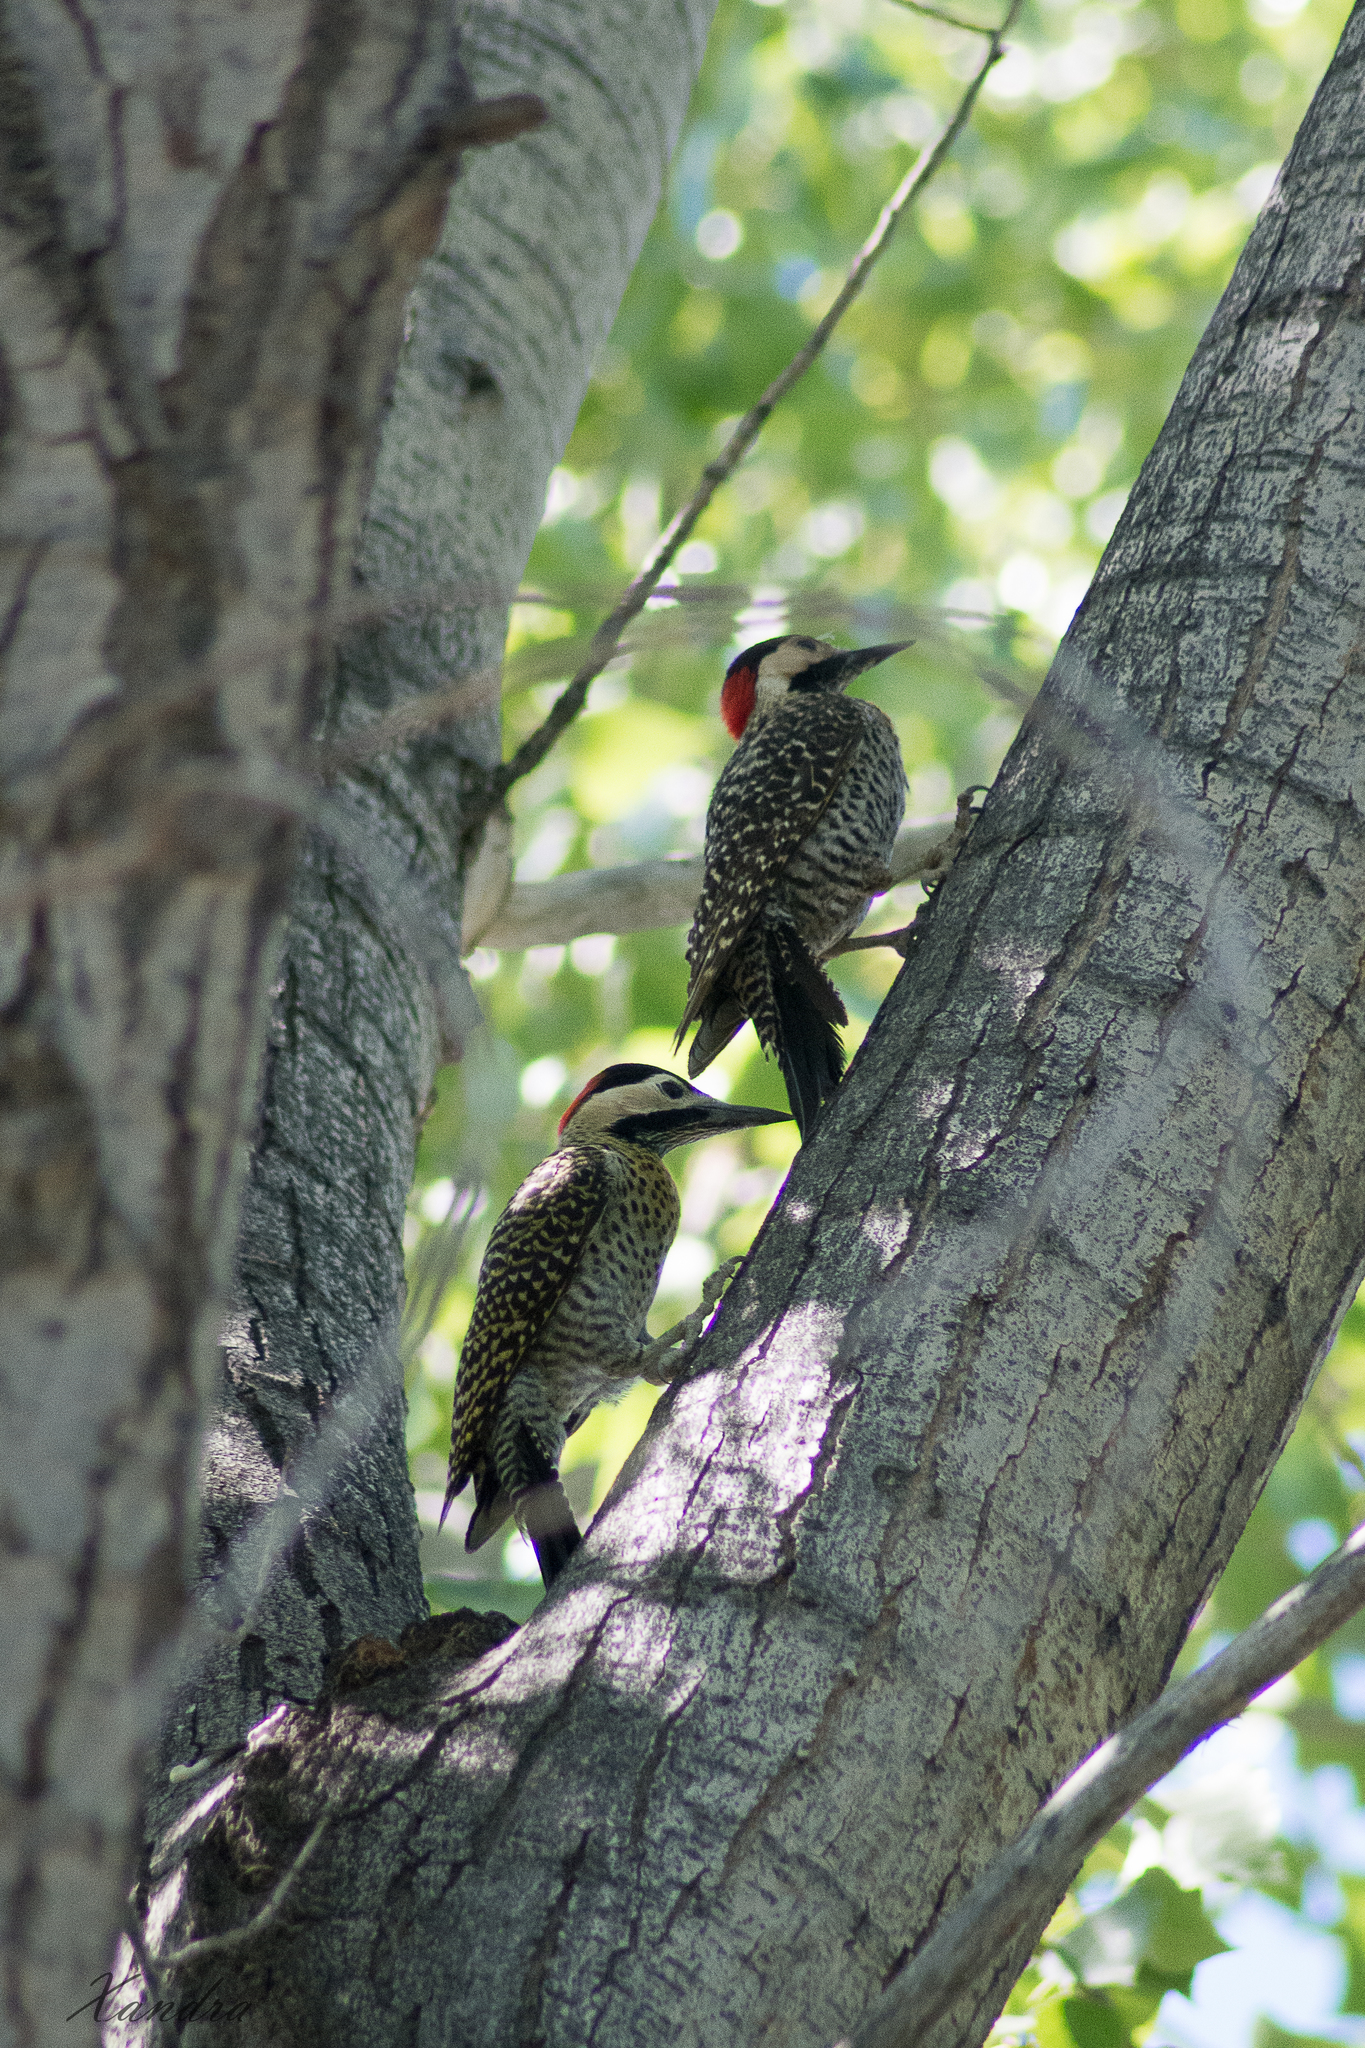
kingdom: Animalia
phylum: Chordata
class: Aves
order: Piciformes
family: Picidae
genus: Colaptes
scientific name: Colaptes melanochloros
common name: Green-barred woodpecker
